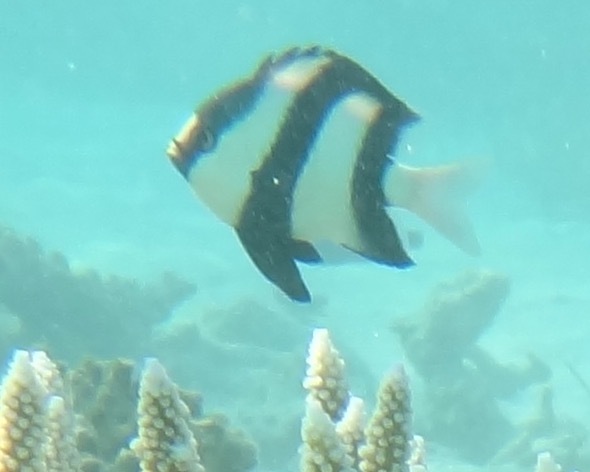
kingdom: Animalia
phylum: Chordata
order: Perciformes
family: Pomacentridae
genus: Dascyllus
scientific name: Dascyllus abudafur
